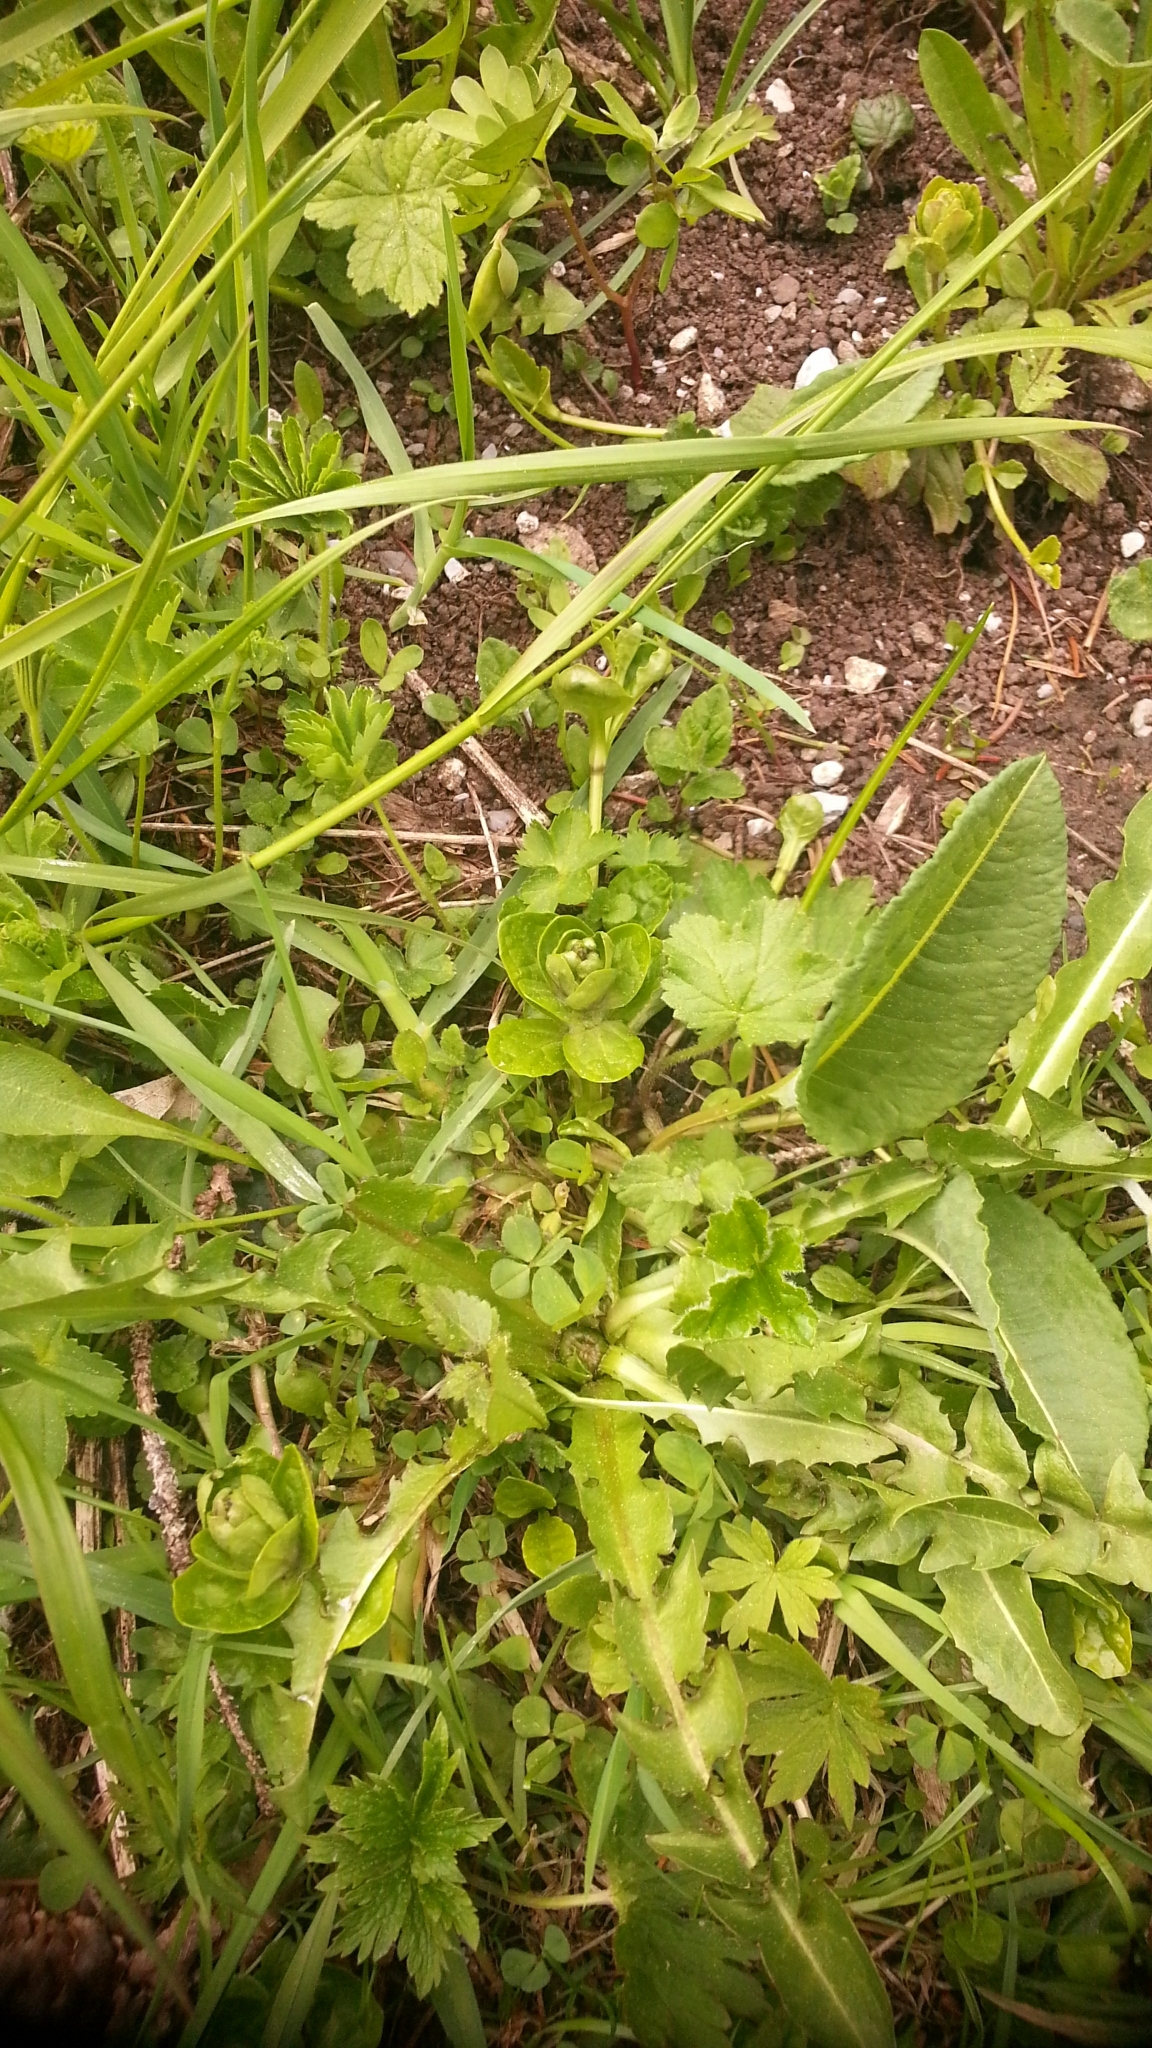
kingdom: Plantae
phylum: Tracheophyta
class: Magnoliopsida
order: Lamiales
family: Lamiaceae
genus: Ajuga
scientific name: Ajuga reptans
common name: Bugle
